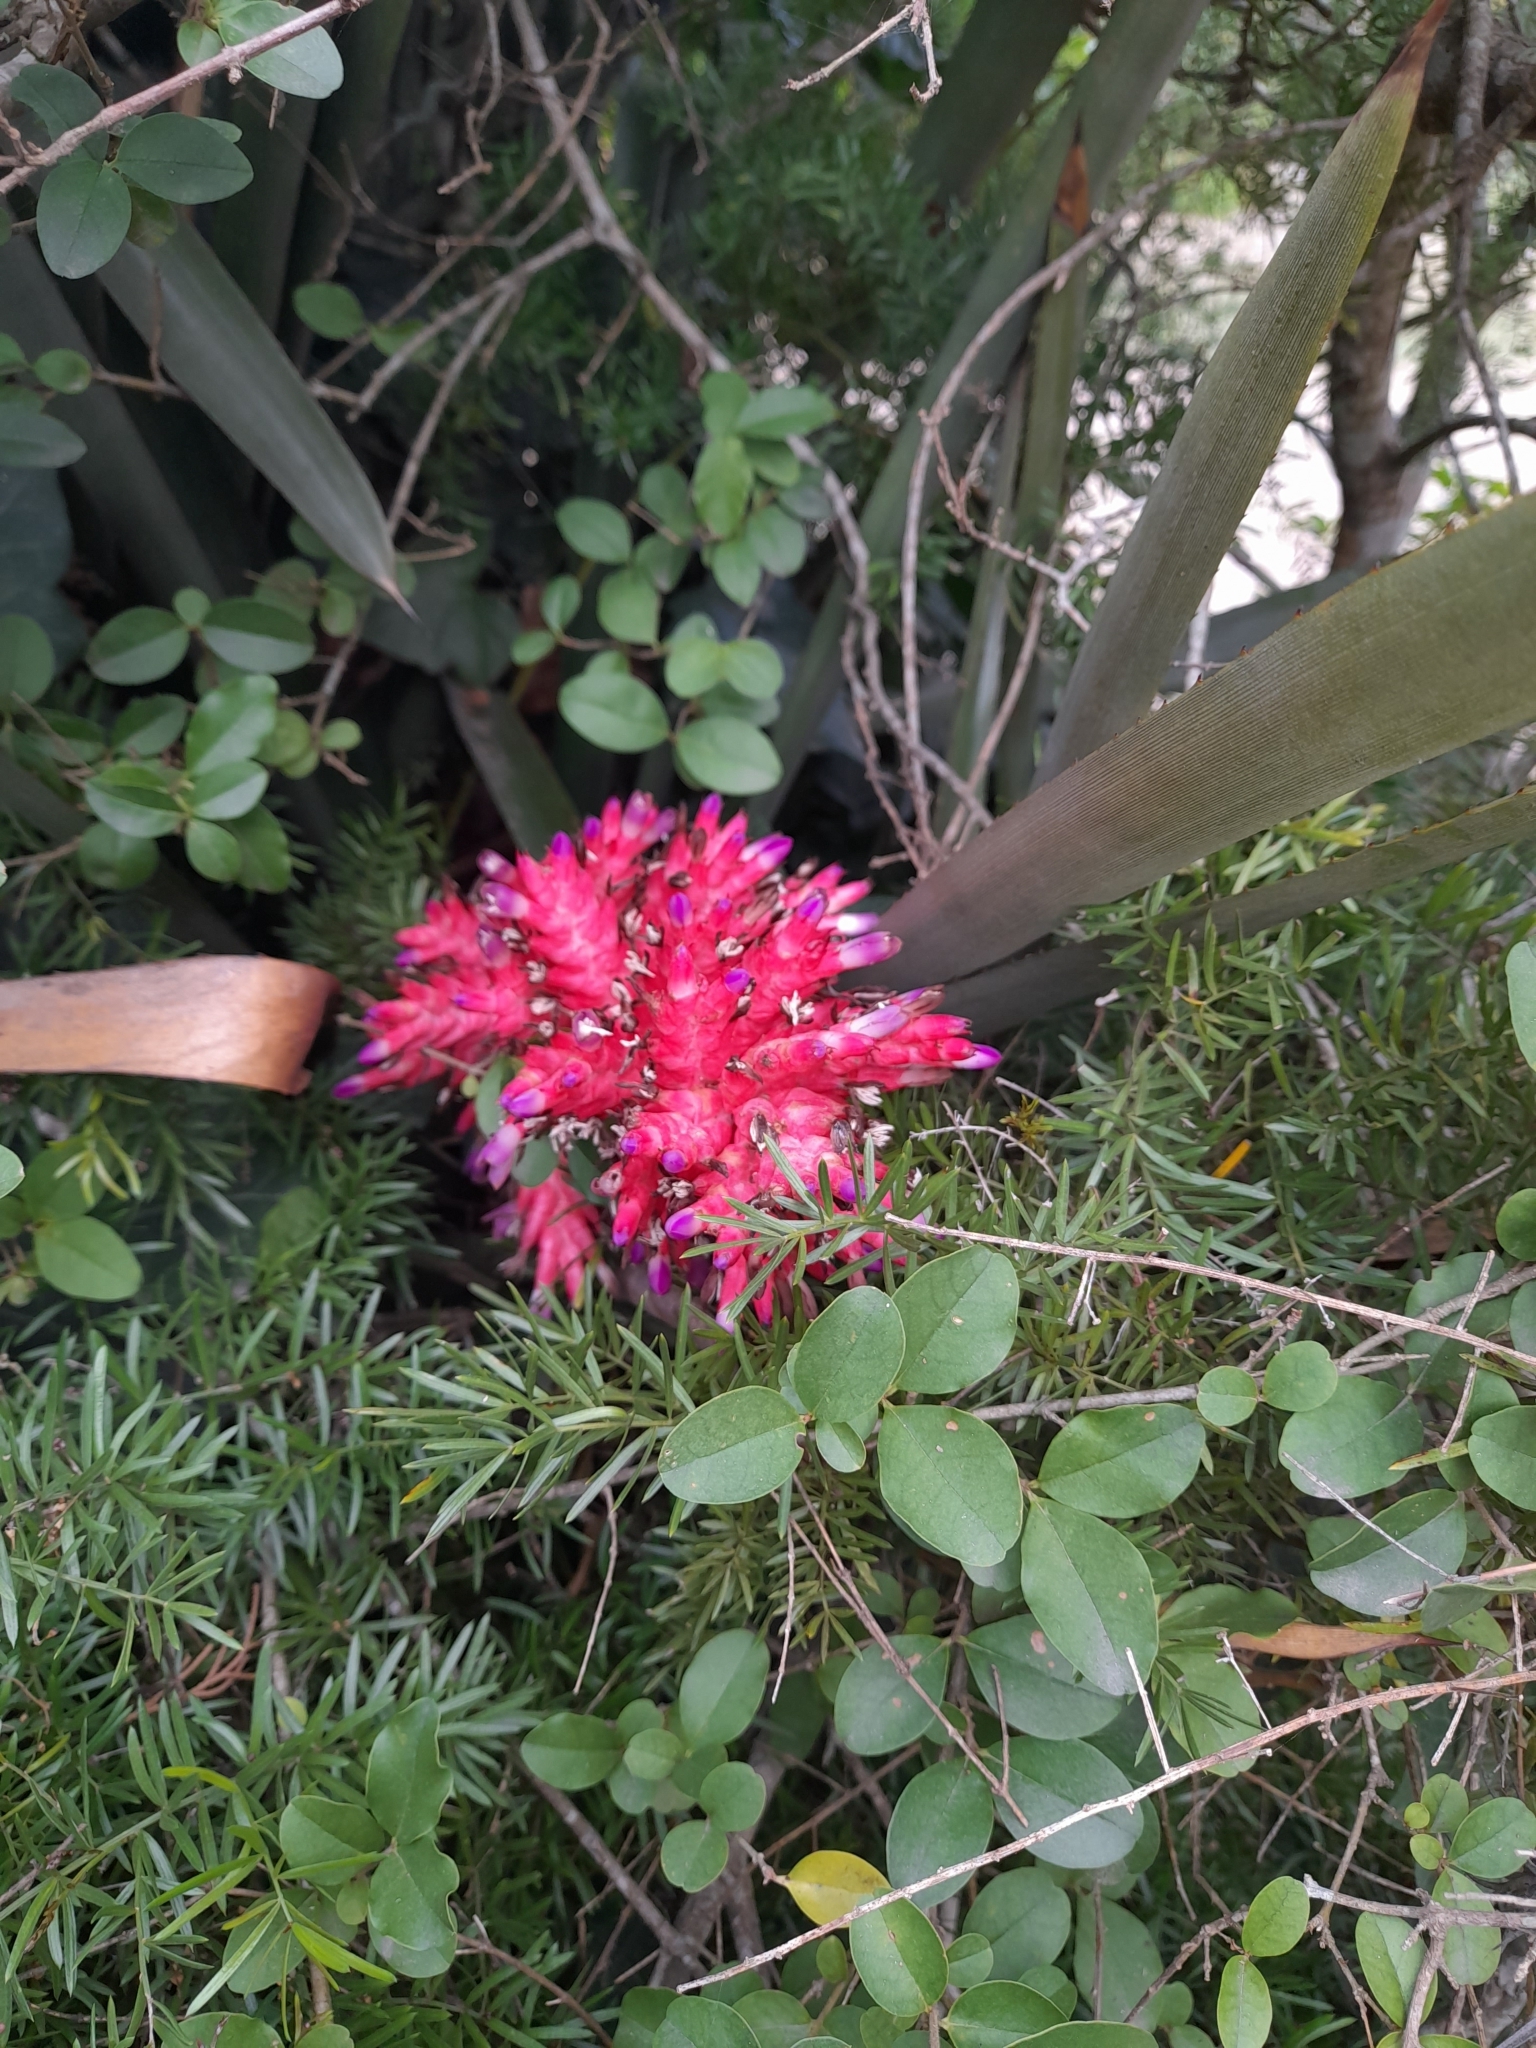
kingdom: Plantae
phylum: Tracheophyta
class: Liliopsida
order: Poales
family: Bromeliaceae
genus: Aechmea
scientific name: Aechmea distichantha
